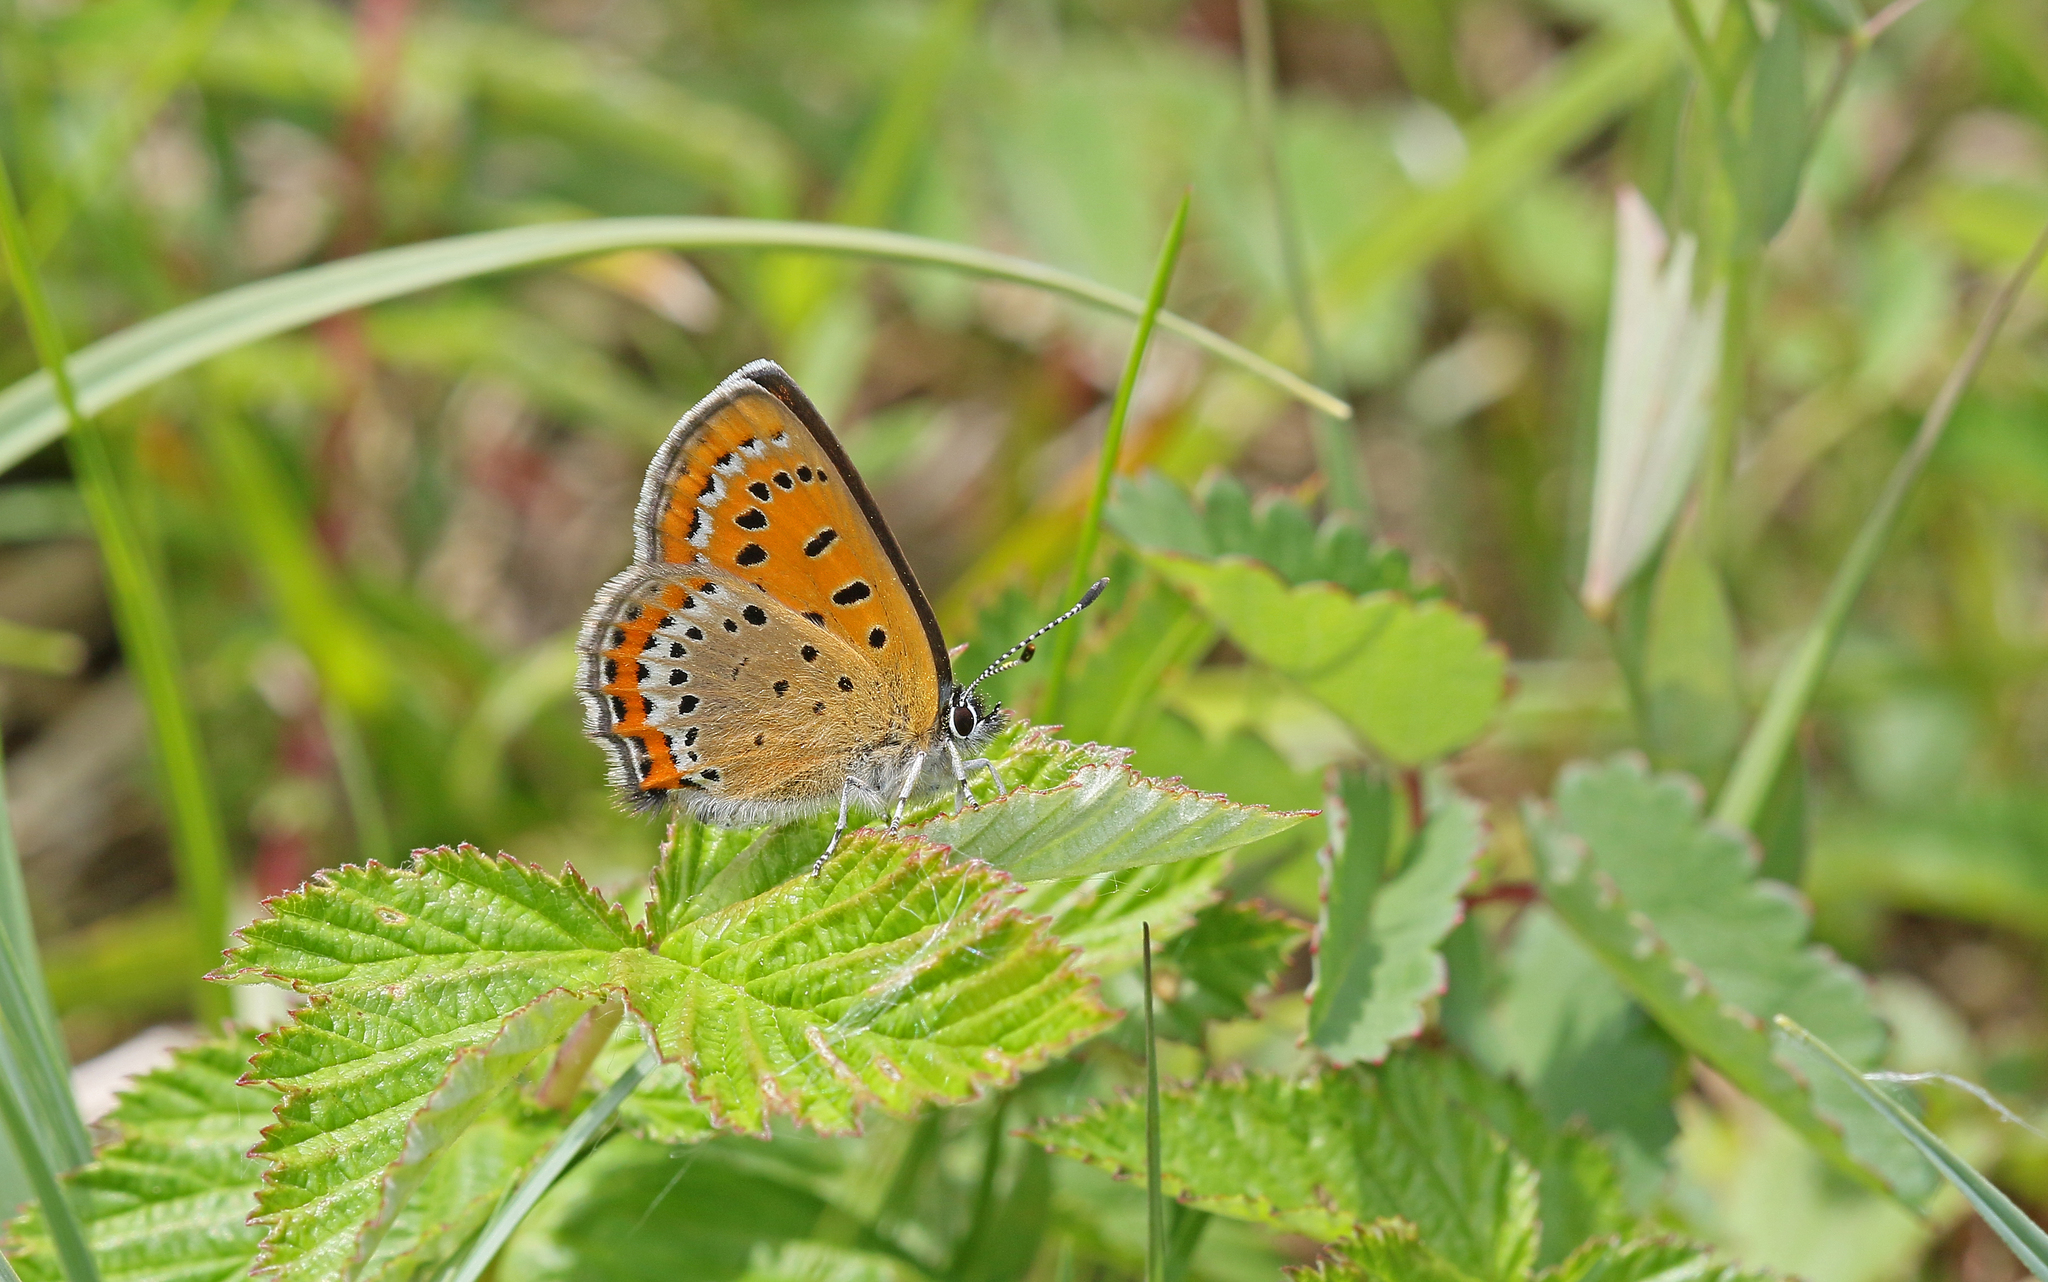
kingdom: Animalia
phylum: Arthropoda
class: Insecta
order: Lepidoptera
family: Lycaenidae
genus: Helleia
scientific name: Helleia helle
